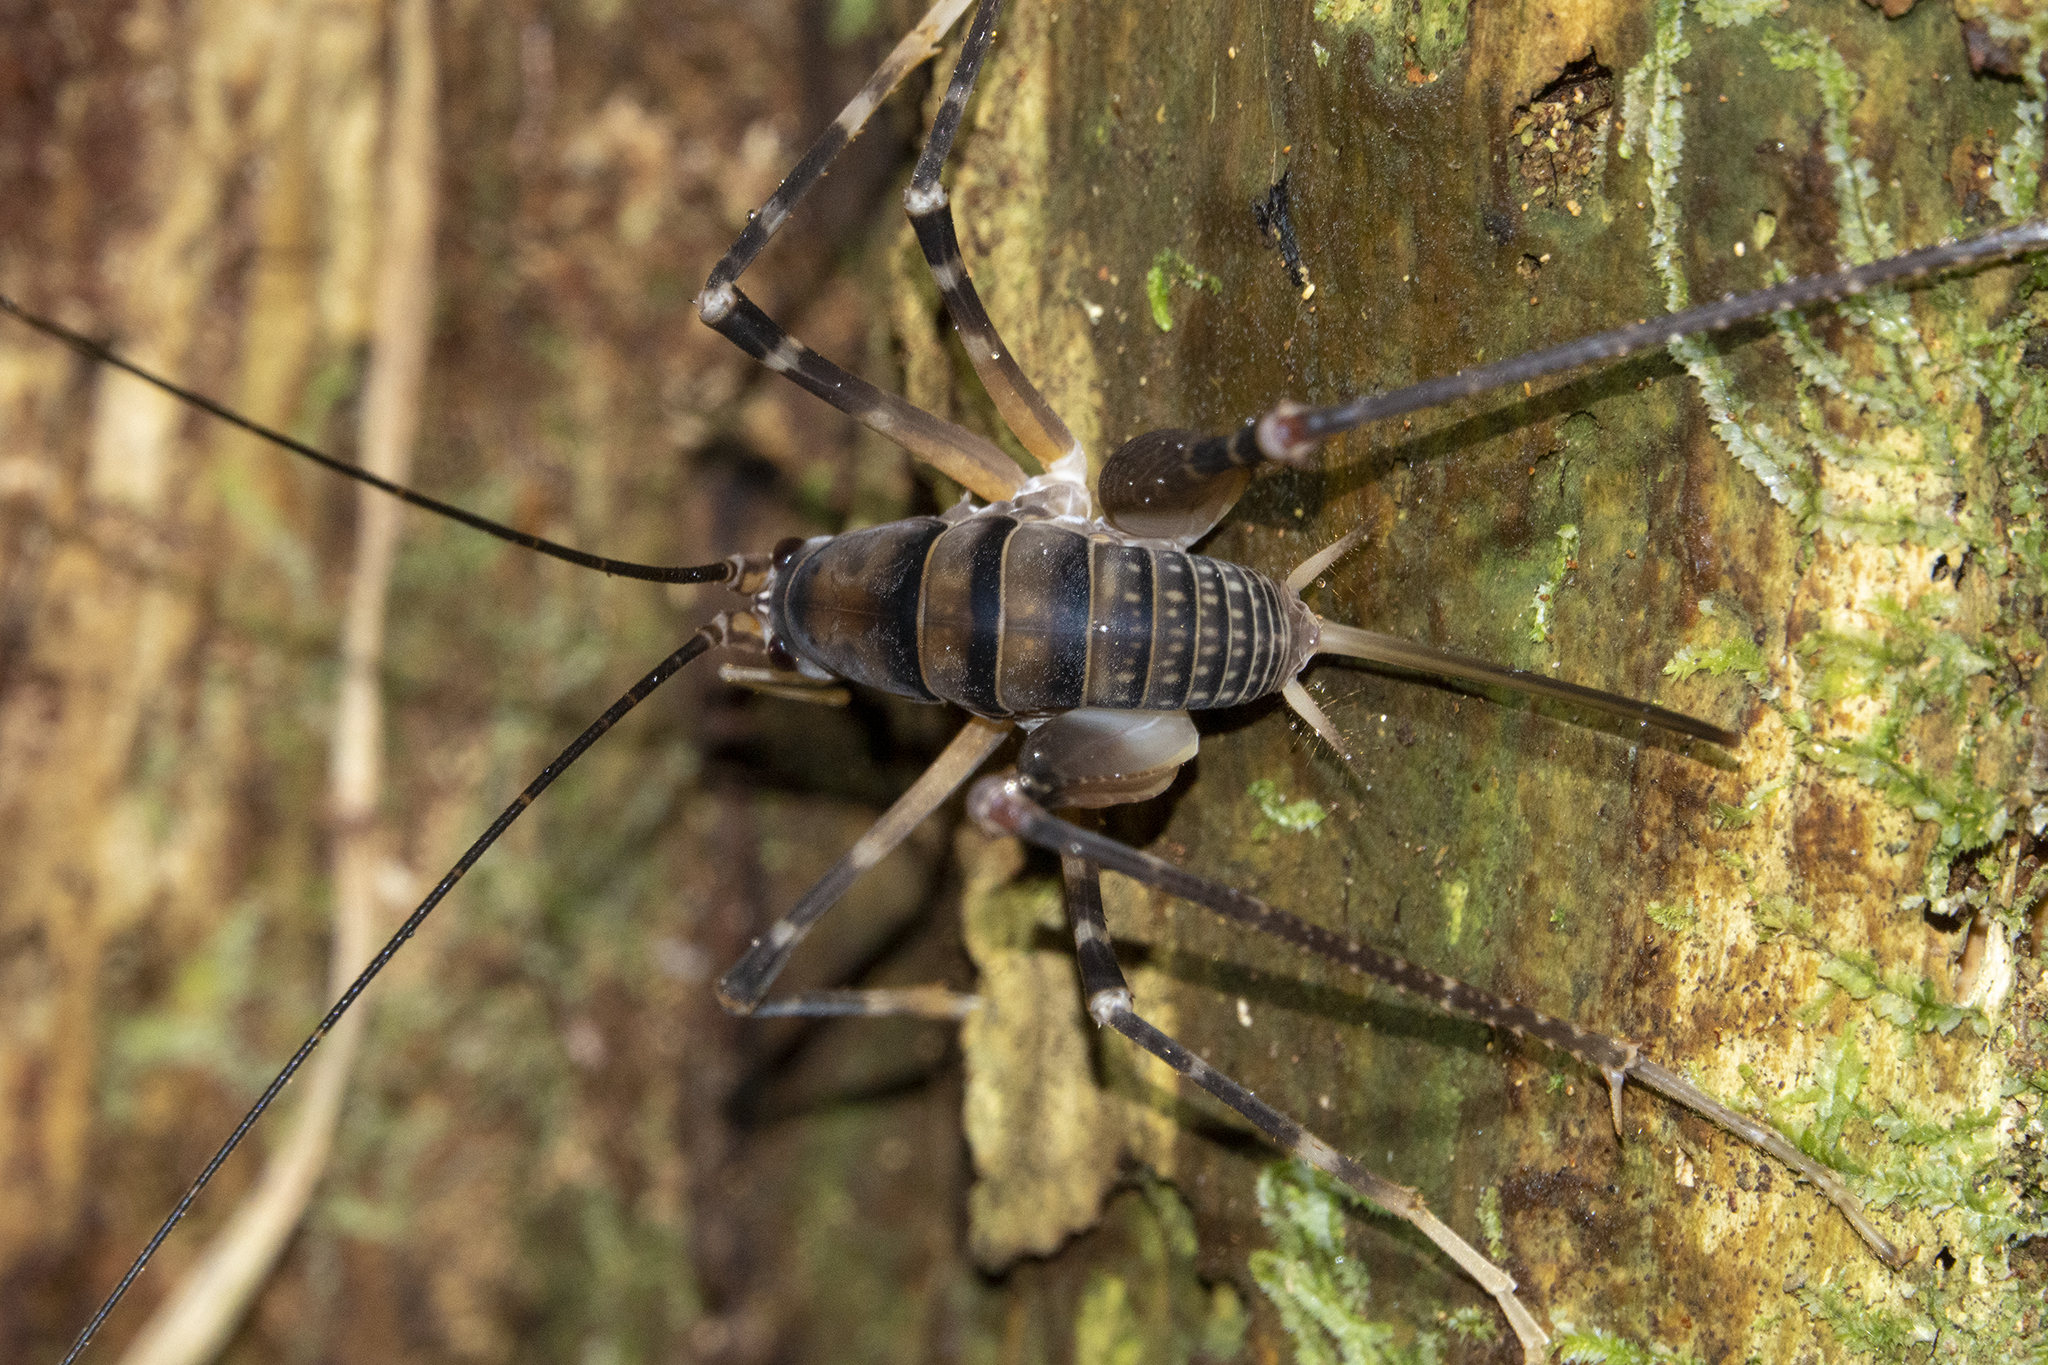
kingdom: Animalia
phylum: Arthropoda
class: Insecta
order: Orthoptera
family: Rhaphidophoridae
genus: Pachyrhamma
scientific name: Pachyrhamma edwardsii
